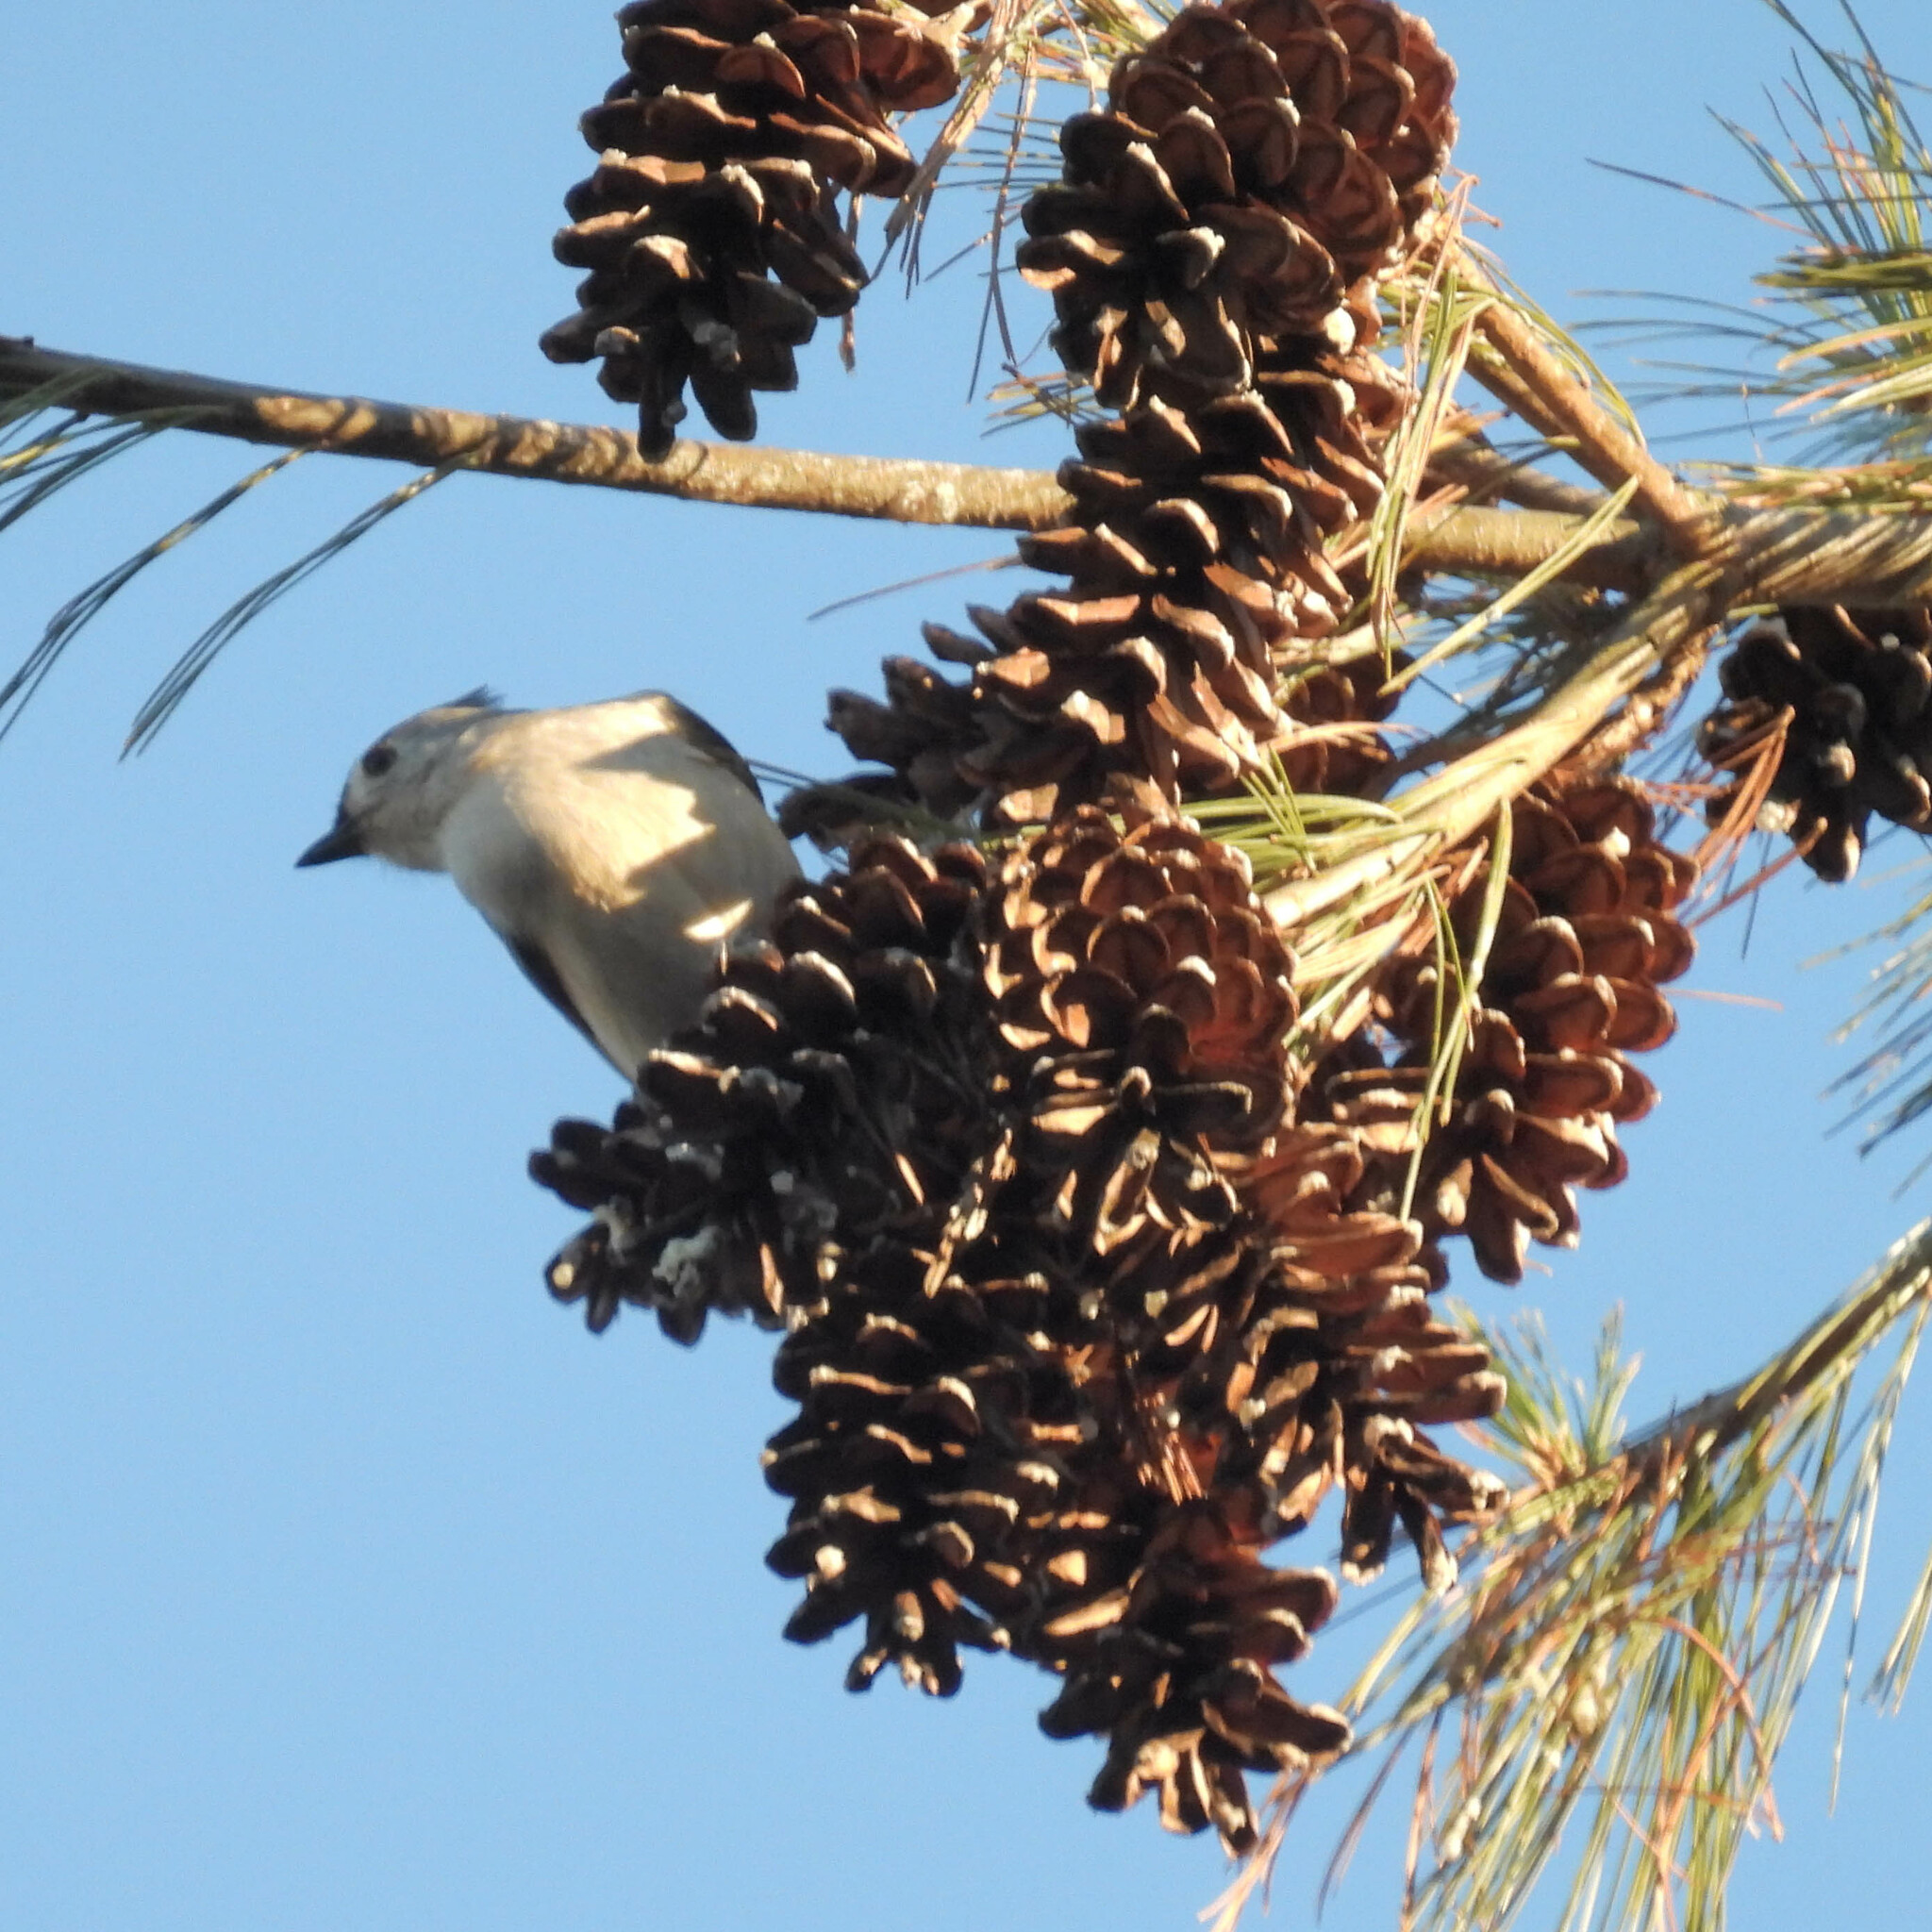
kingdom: Animalia
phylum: Chordata
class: Aves
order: Passeriformes
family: Paridae
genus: Baeolophus
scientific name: Baeolophus bicolor
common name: Tufted titmouse
